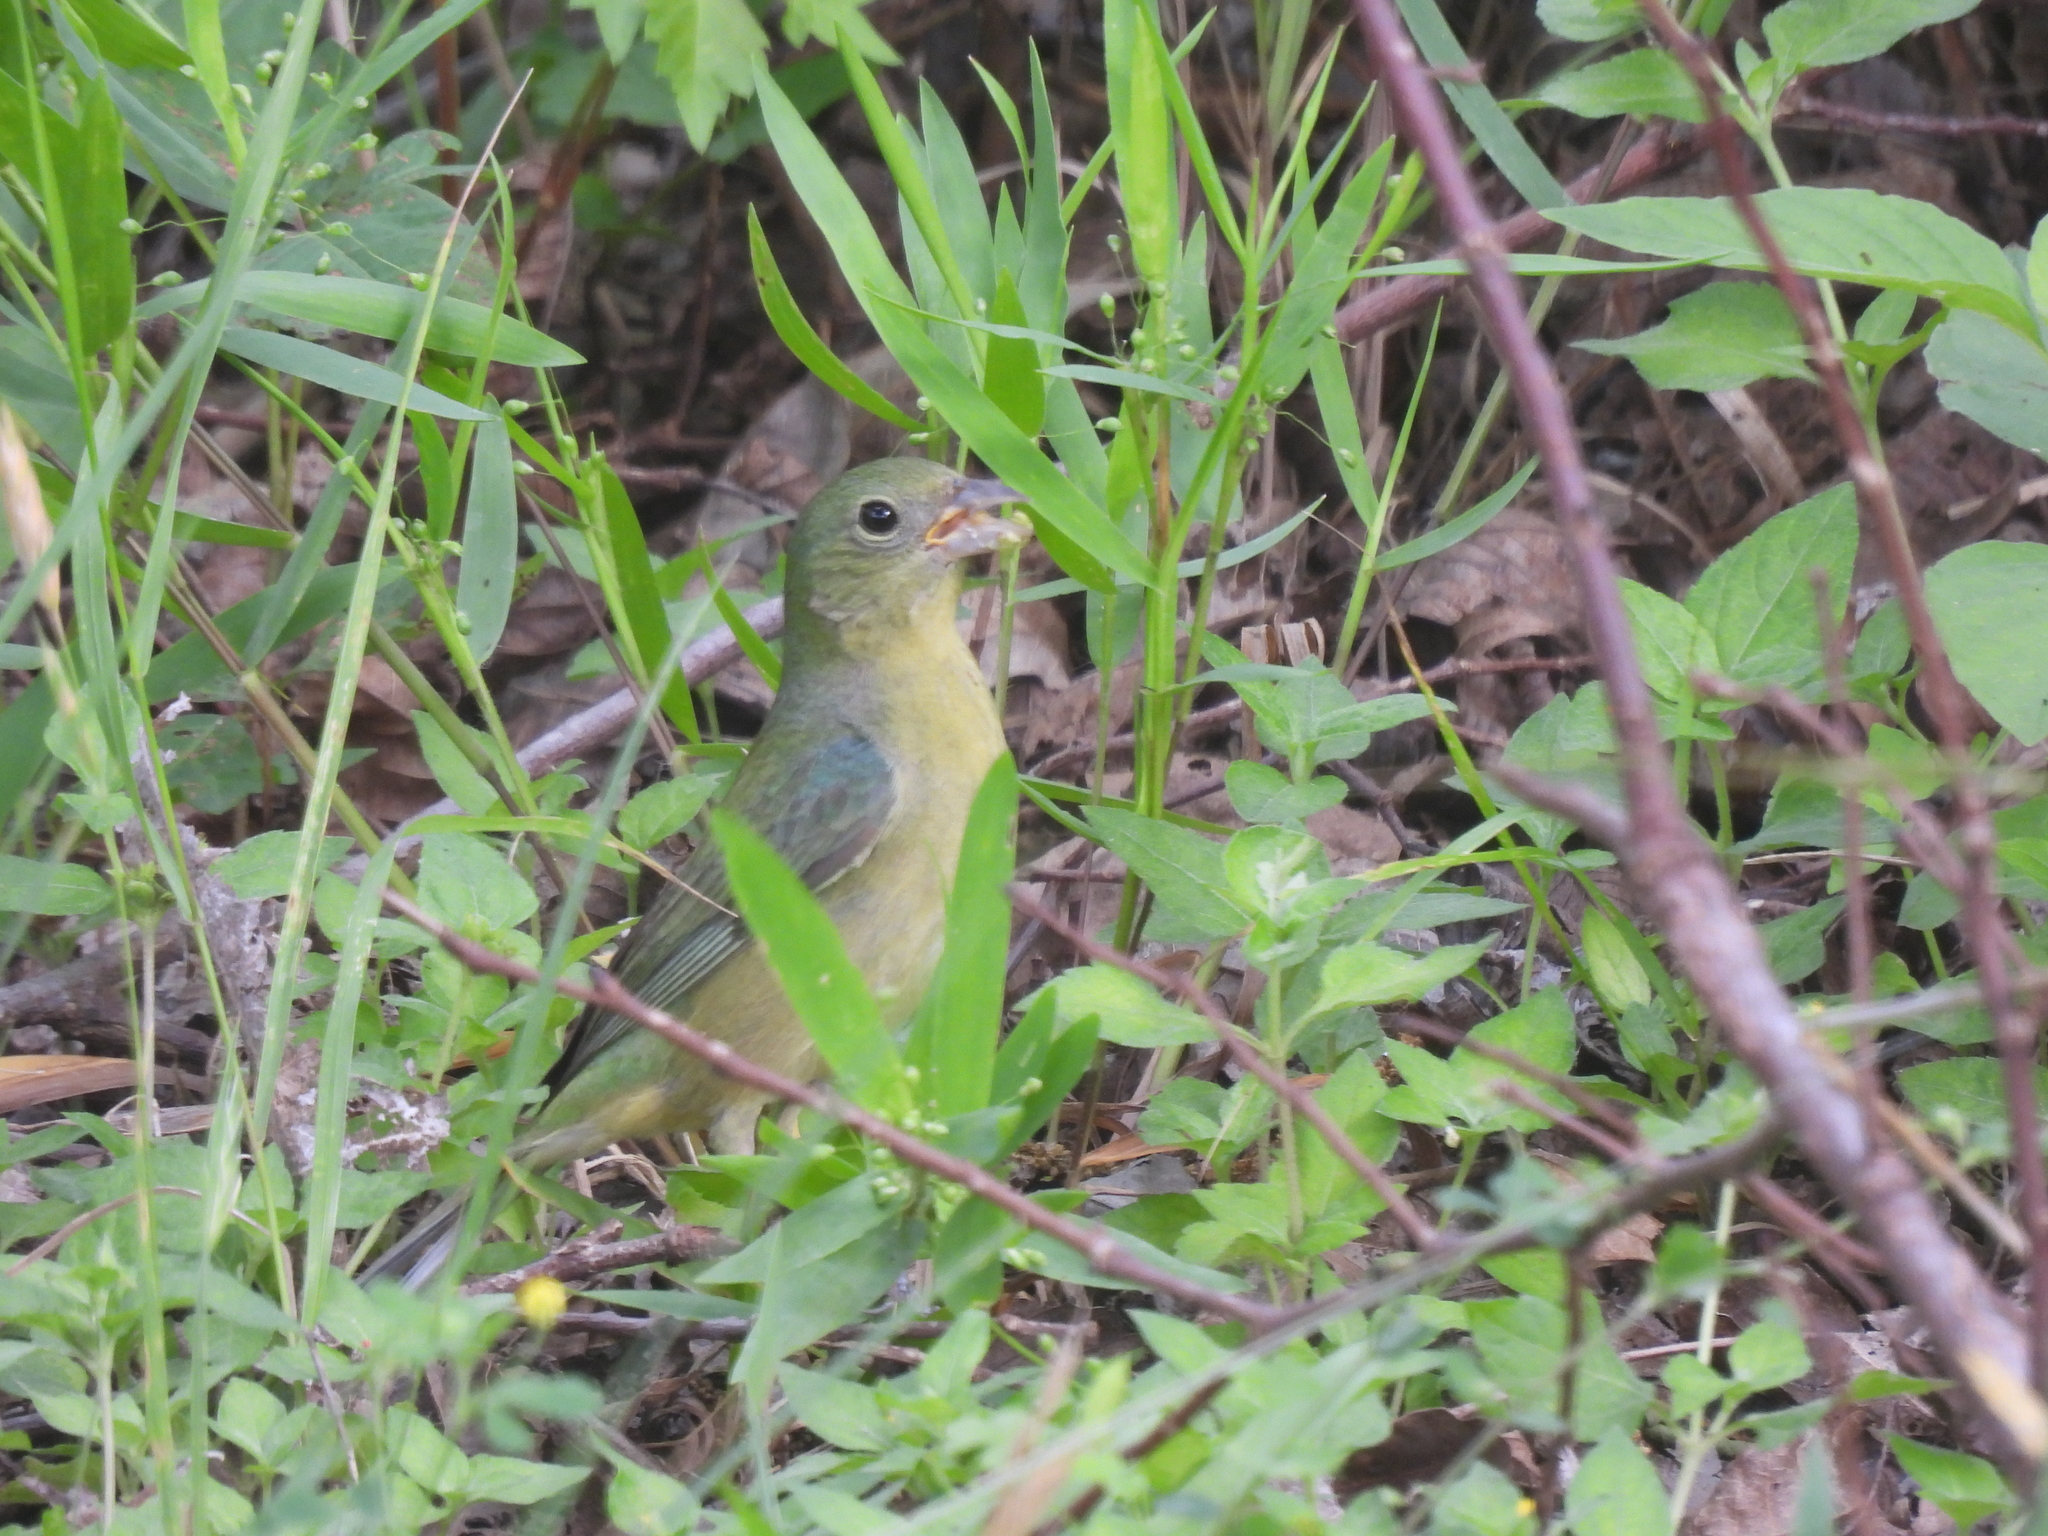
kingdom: Animalia
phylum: Chordata
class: Aves
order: Passeriformes
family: Cardinalidae
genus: Passerina
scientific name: Passerina ciris
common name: Painted bunting
